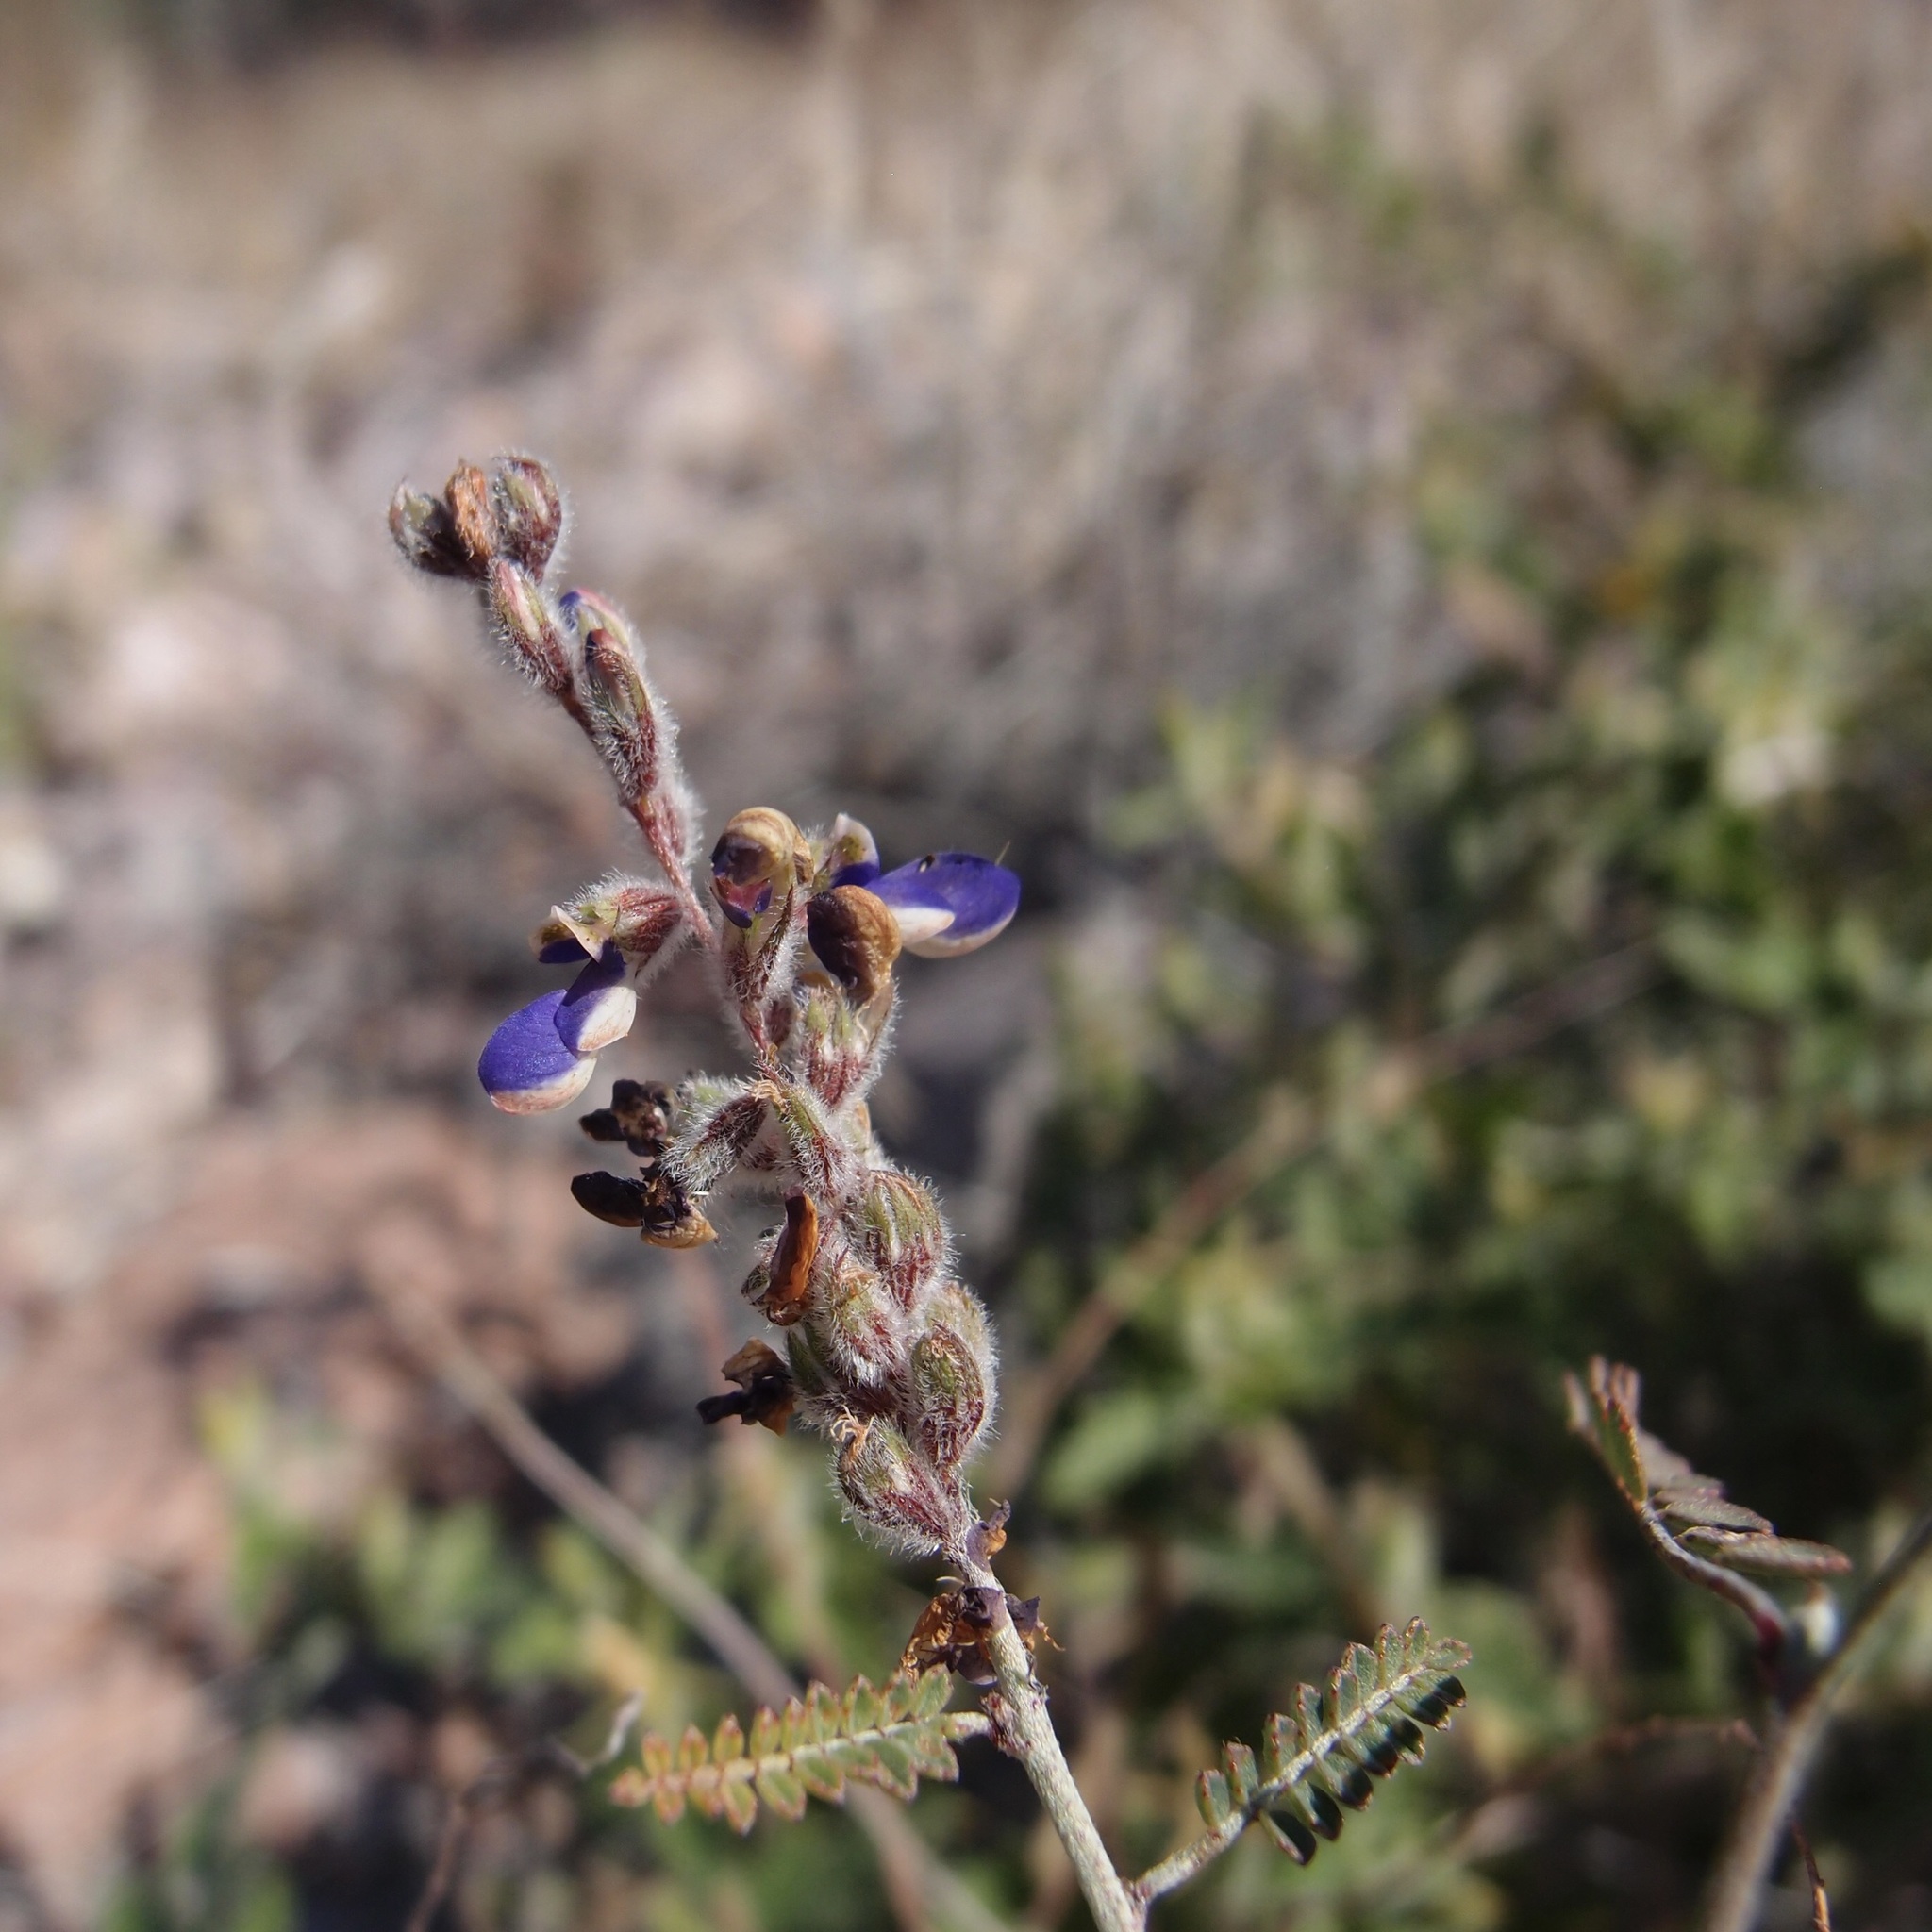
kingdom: Plantae
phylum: Tracheophyta
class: Magnoliopsida
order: Fabales
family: Fabaceae
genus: Marina
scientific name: Marina parryi
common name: Parry's marina
